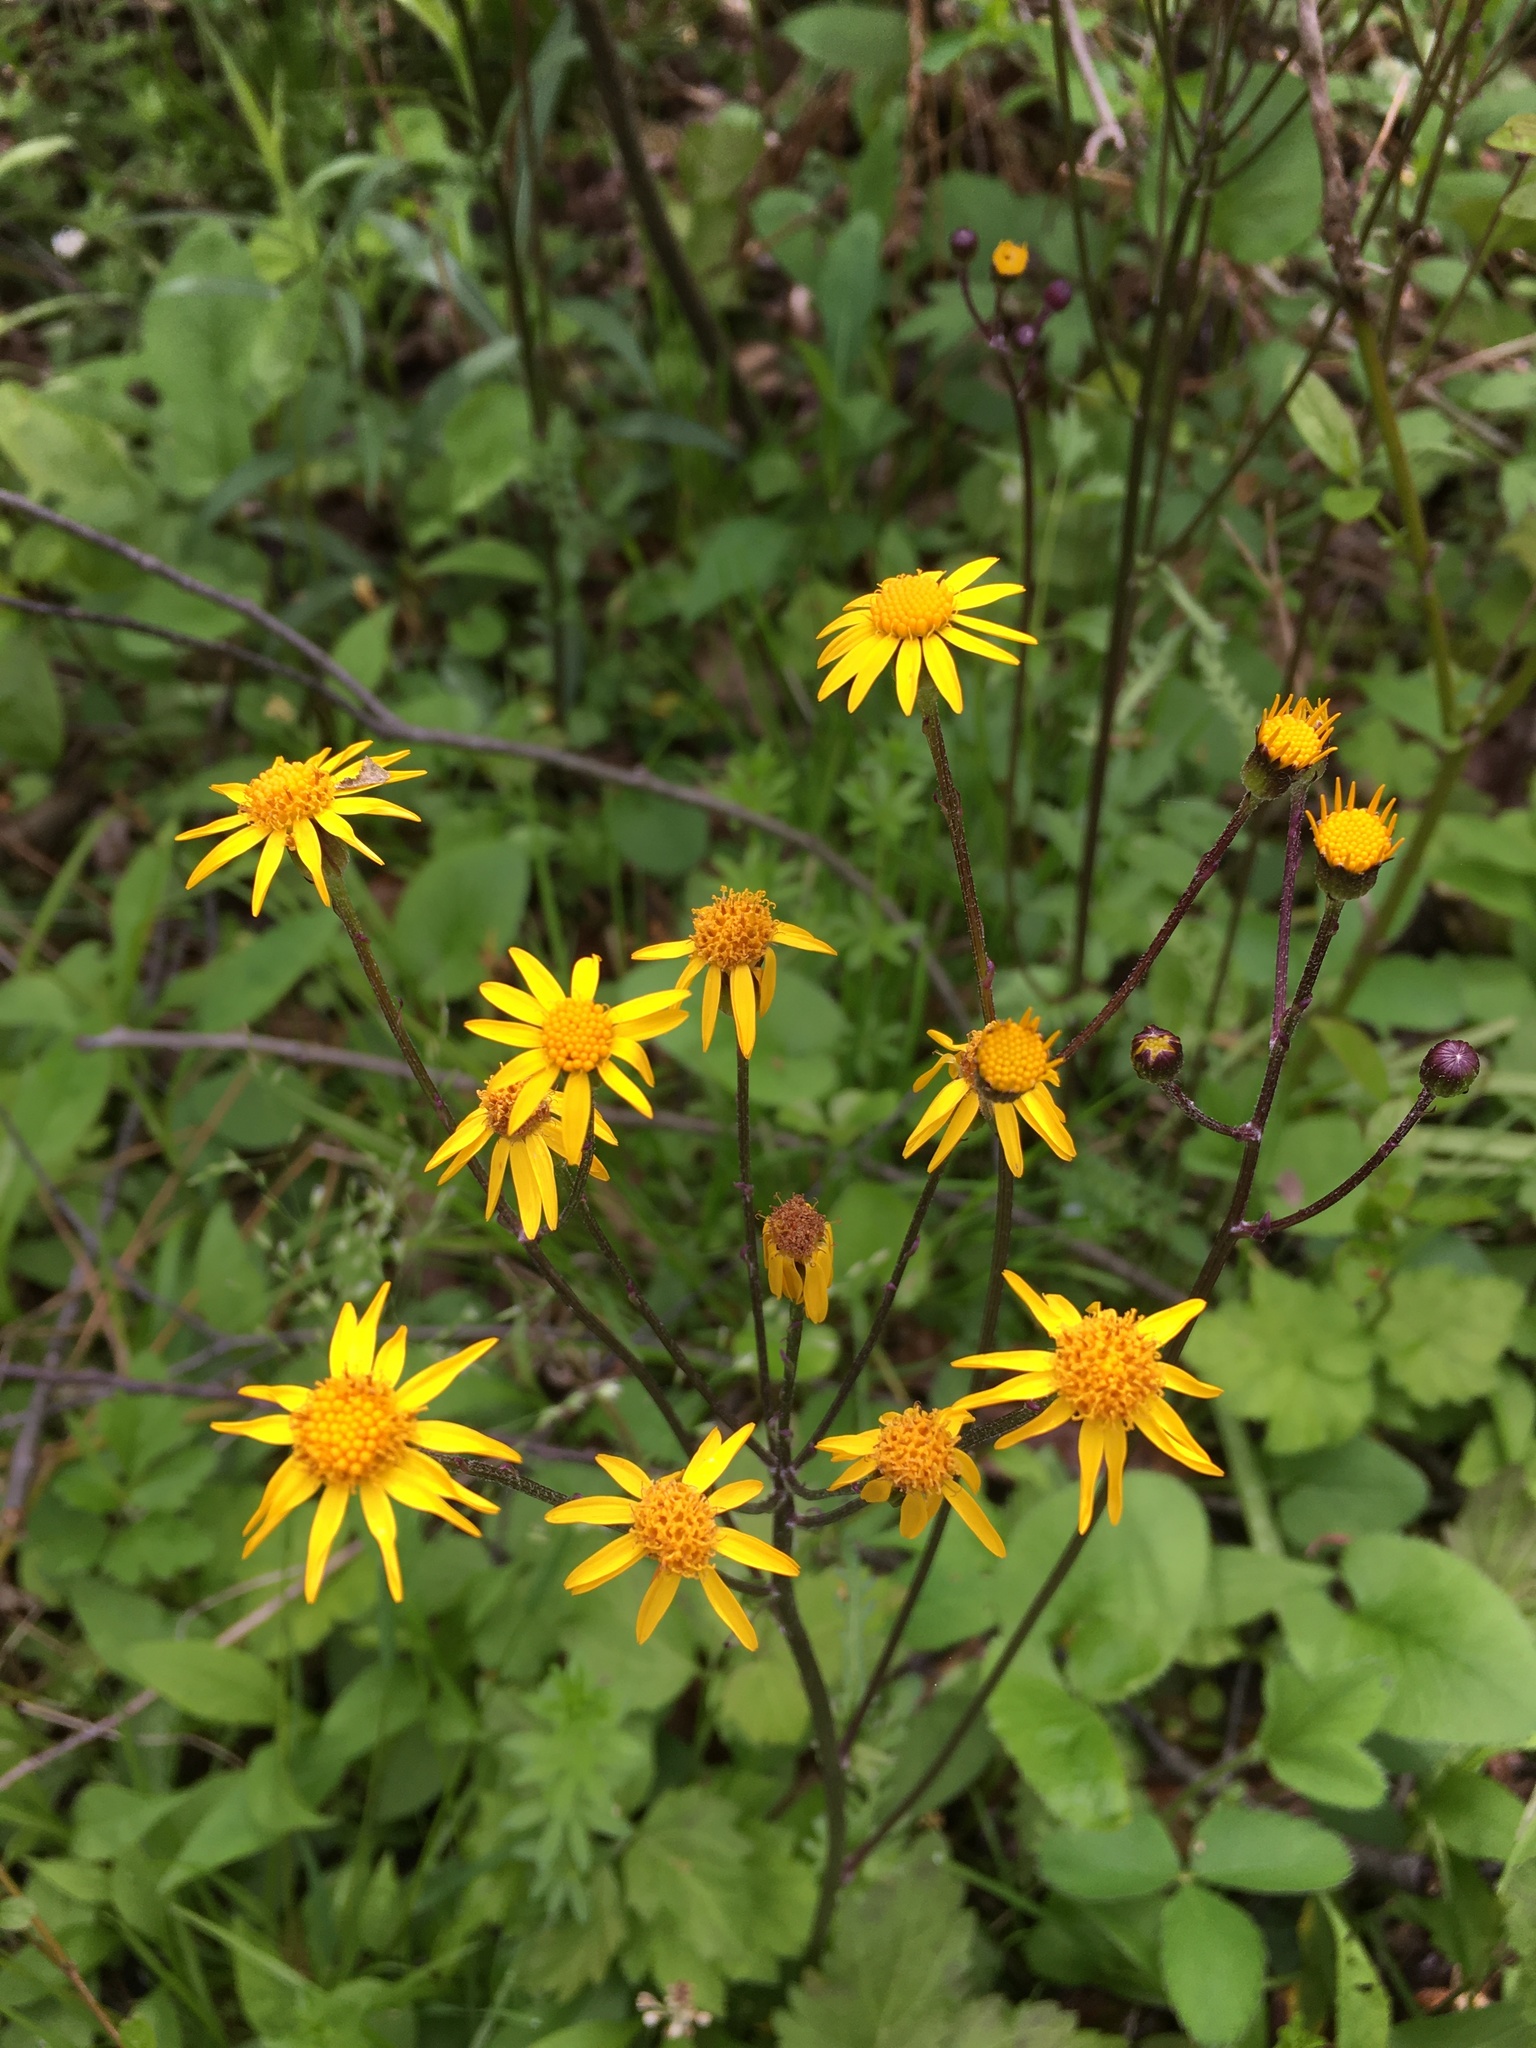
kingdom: Plantae
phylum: Tracheophyta
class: Magnoliopsida
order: Asterales
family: Asteraceae
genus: Packera
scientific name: Packera aurea
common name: Golden groundsel
